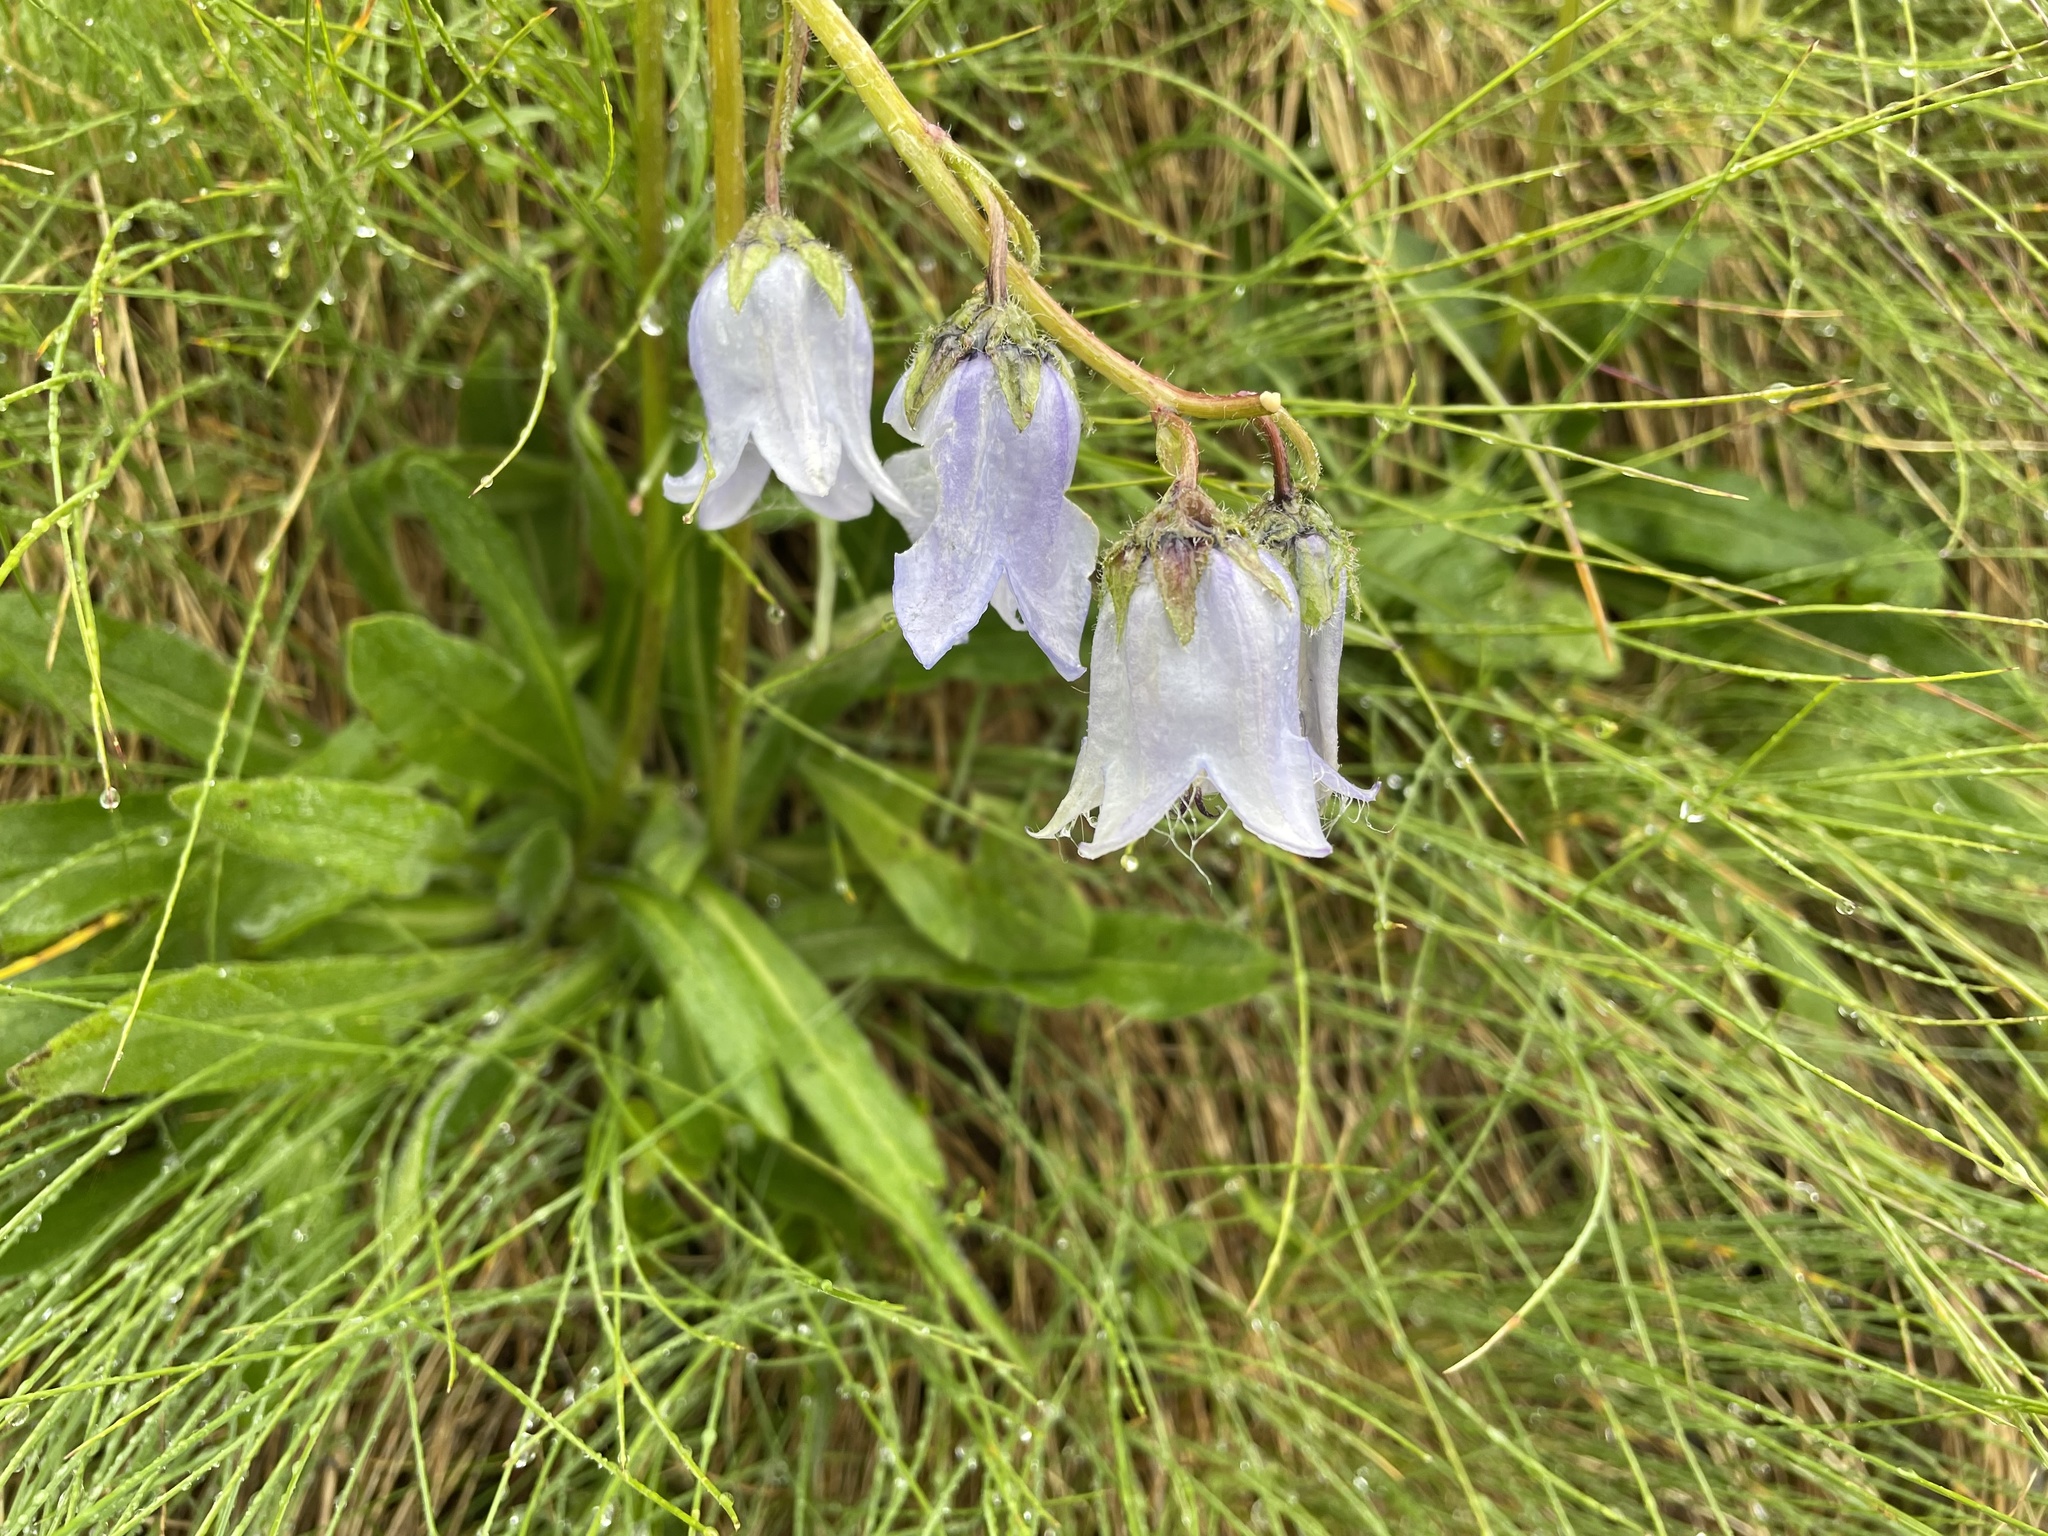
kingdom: Plantae
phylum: Tracheophyta
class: Magnoliopsida
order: Asterales
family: Campanulaceae
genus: Campanula
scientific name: Campanula barbata
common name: Bearded bellflower
